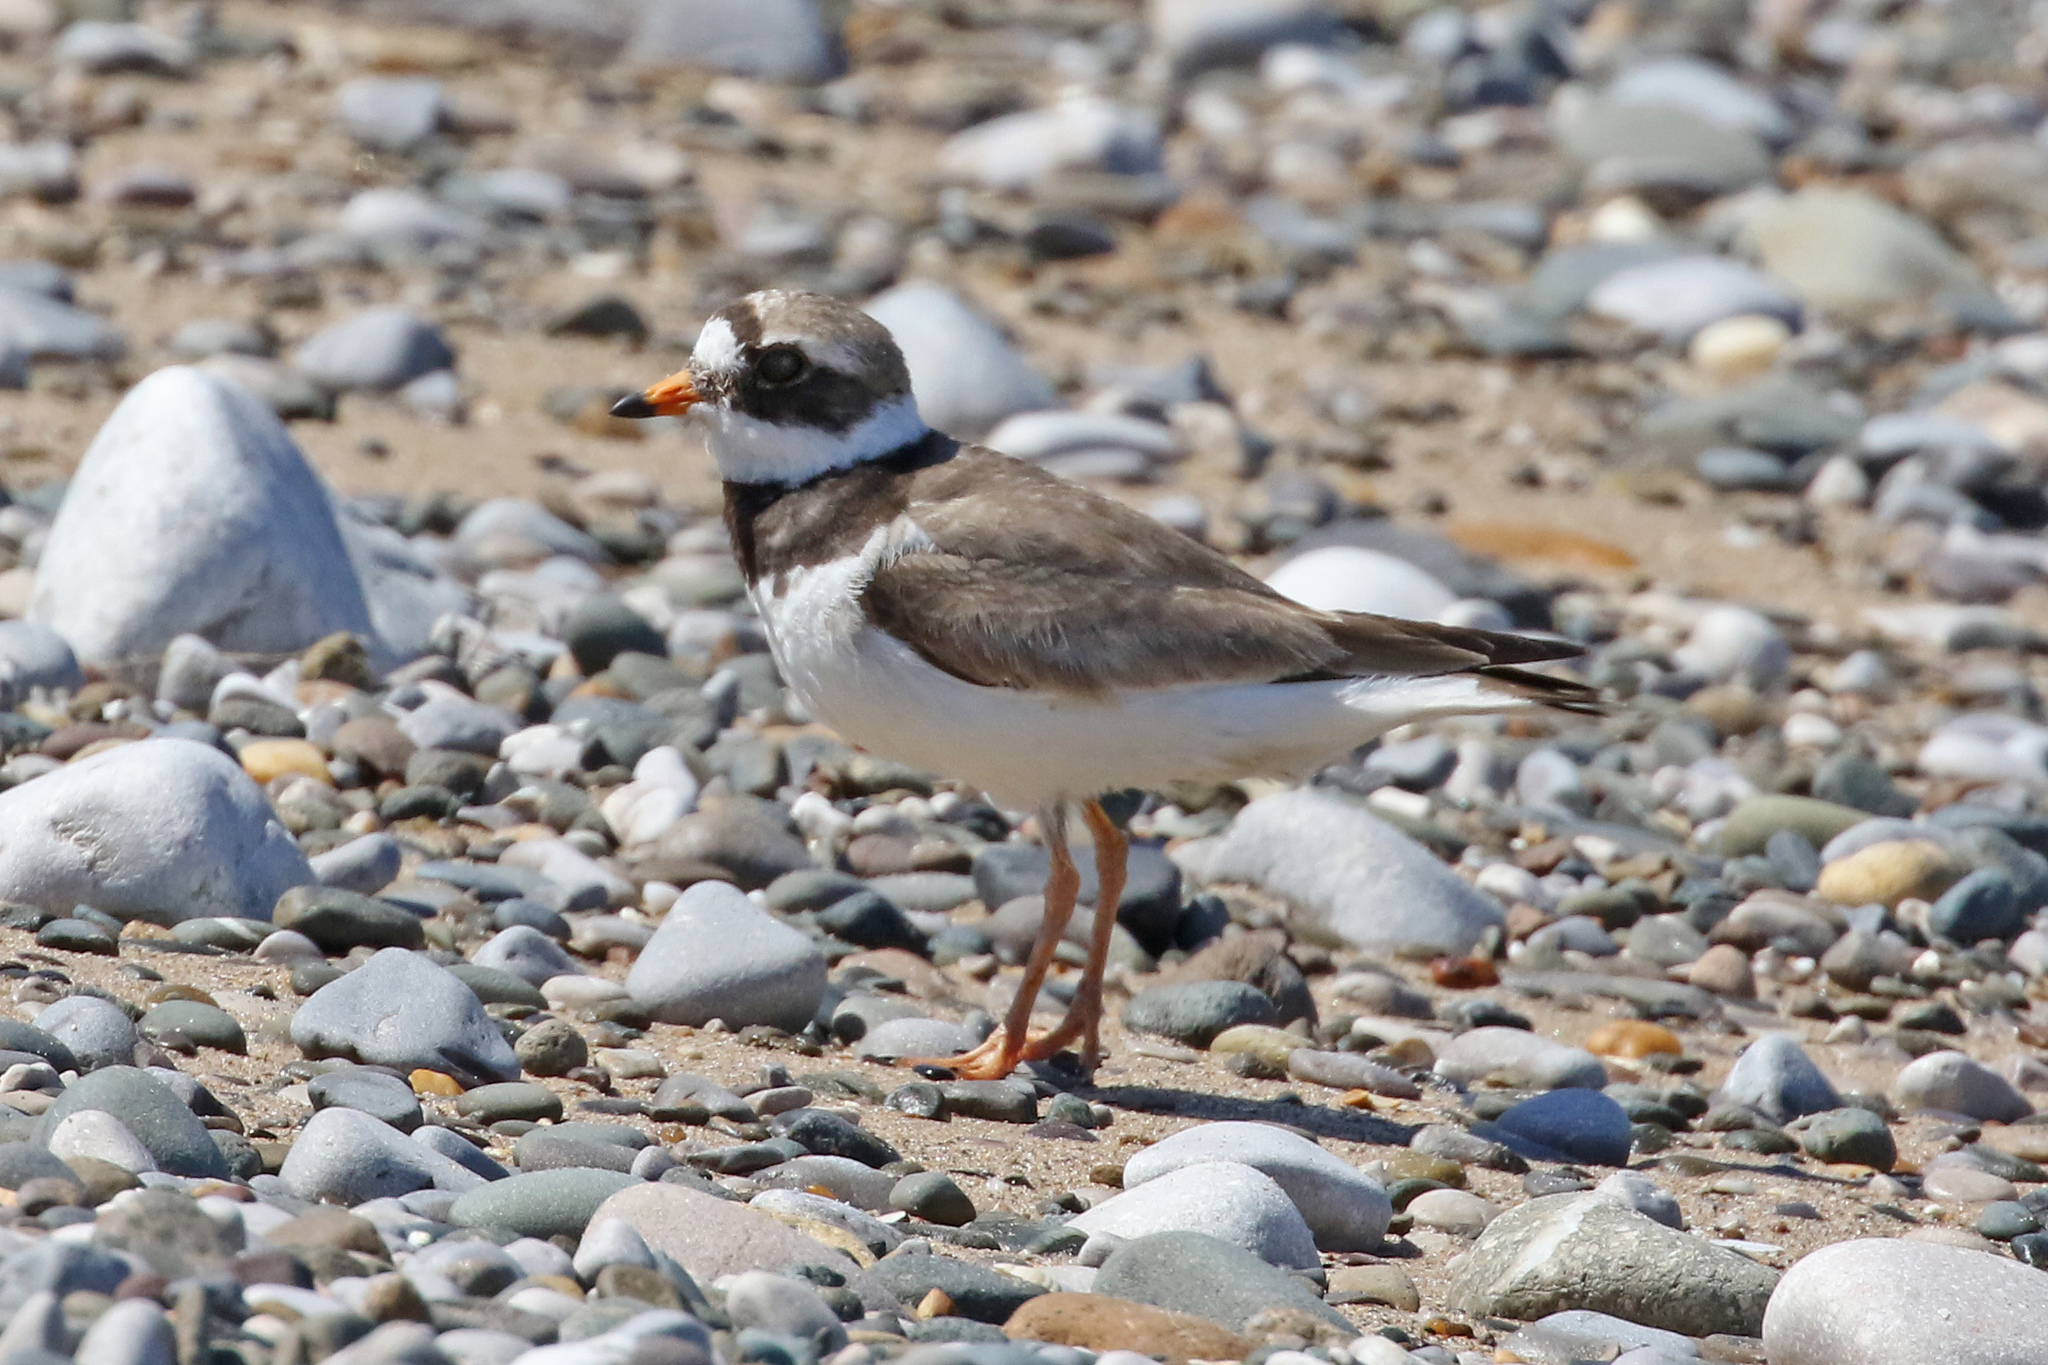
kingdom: Animalia
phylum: Chordata
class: Aves
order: Charadriiformes
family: Charadriidae
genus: Charadrius
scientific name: Charadrius hiaticula
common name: Common ringed plover
